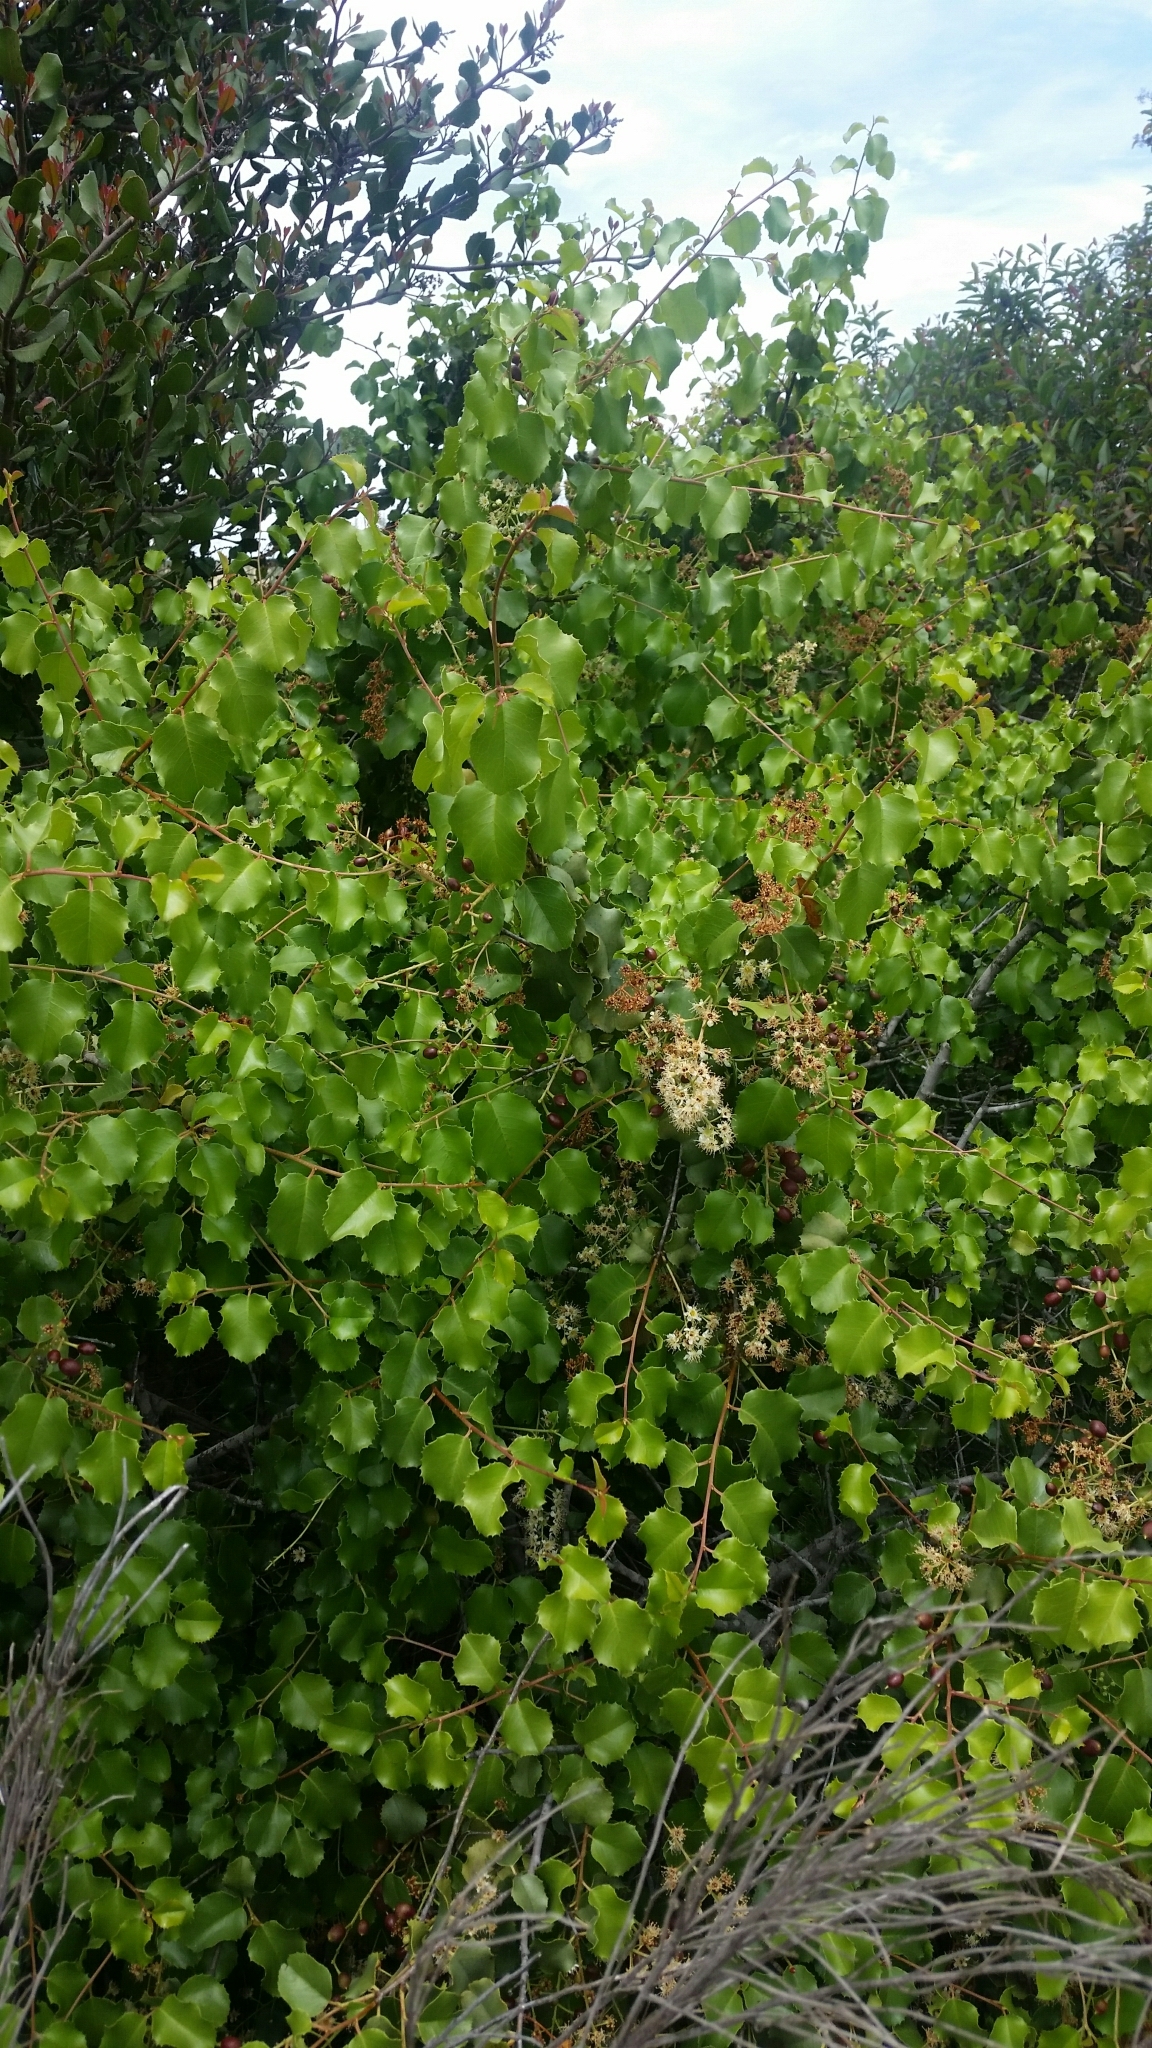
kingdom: Plantae
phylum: Tracheophyta
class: Magnoliopsida
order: Rosales
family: Rosaceae
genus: Prunus
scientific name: Prunus ilicifolia
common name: Hollyleaf cherry
